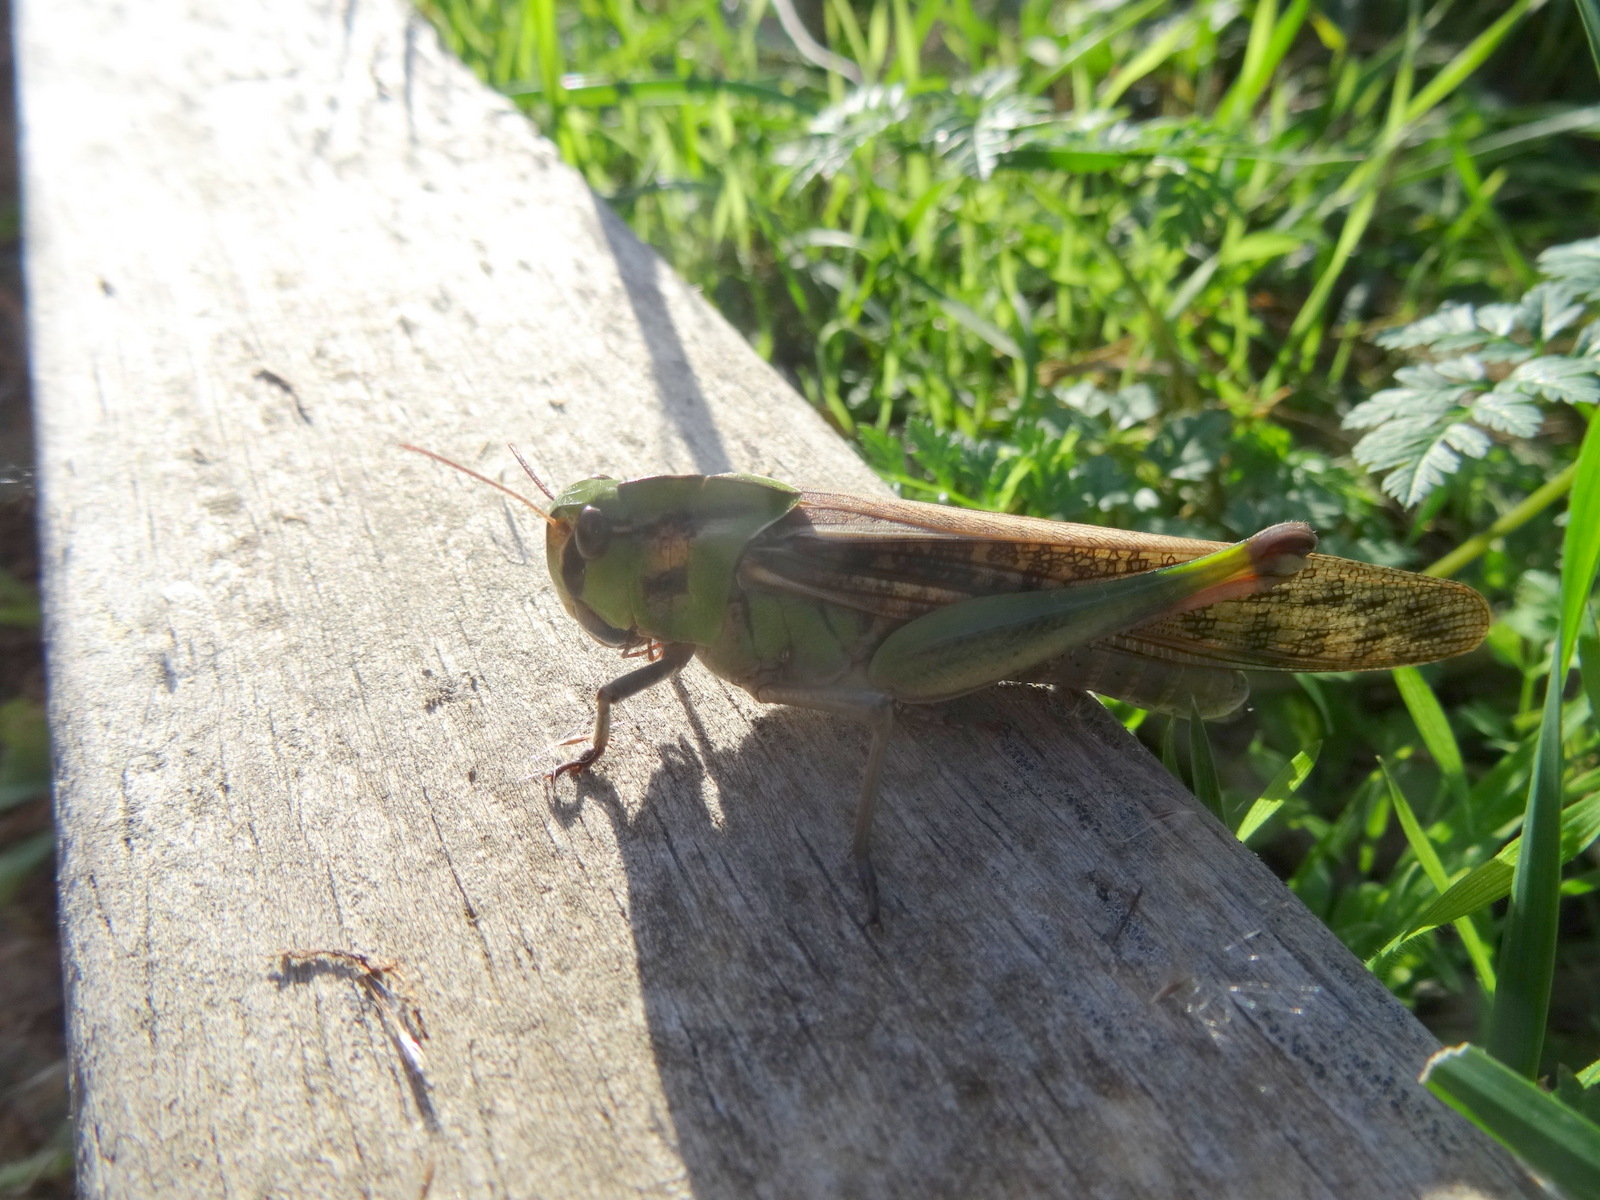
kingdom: Animalia
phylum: Arthropoda
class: Insecta
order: Orthoptera
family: Acrididae
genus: Locusta
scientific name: Locusta migratoria
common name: Migratory locust
